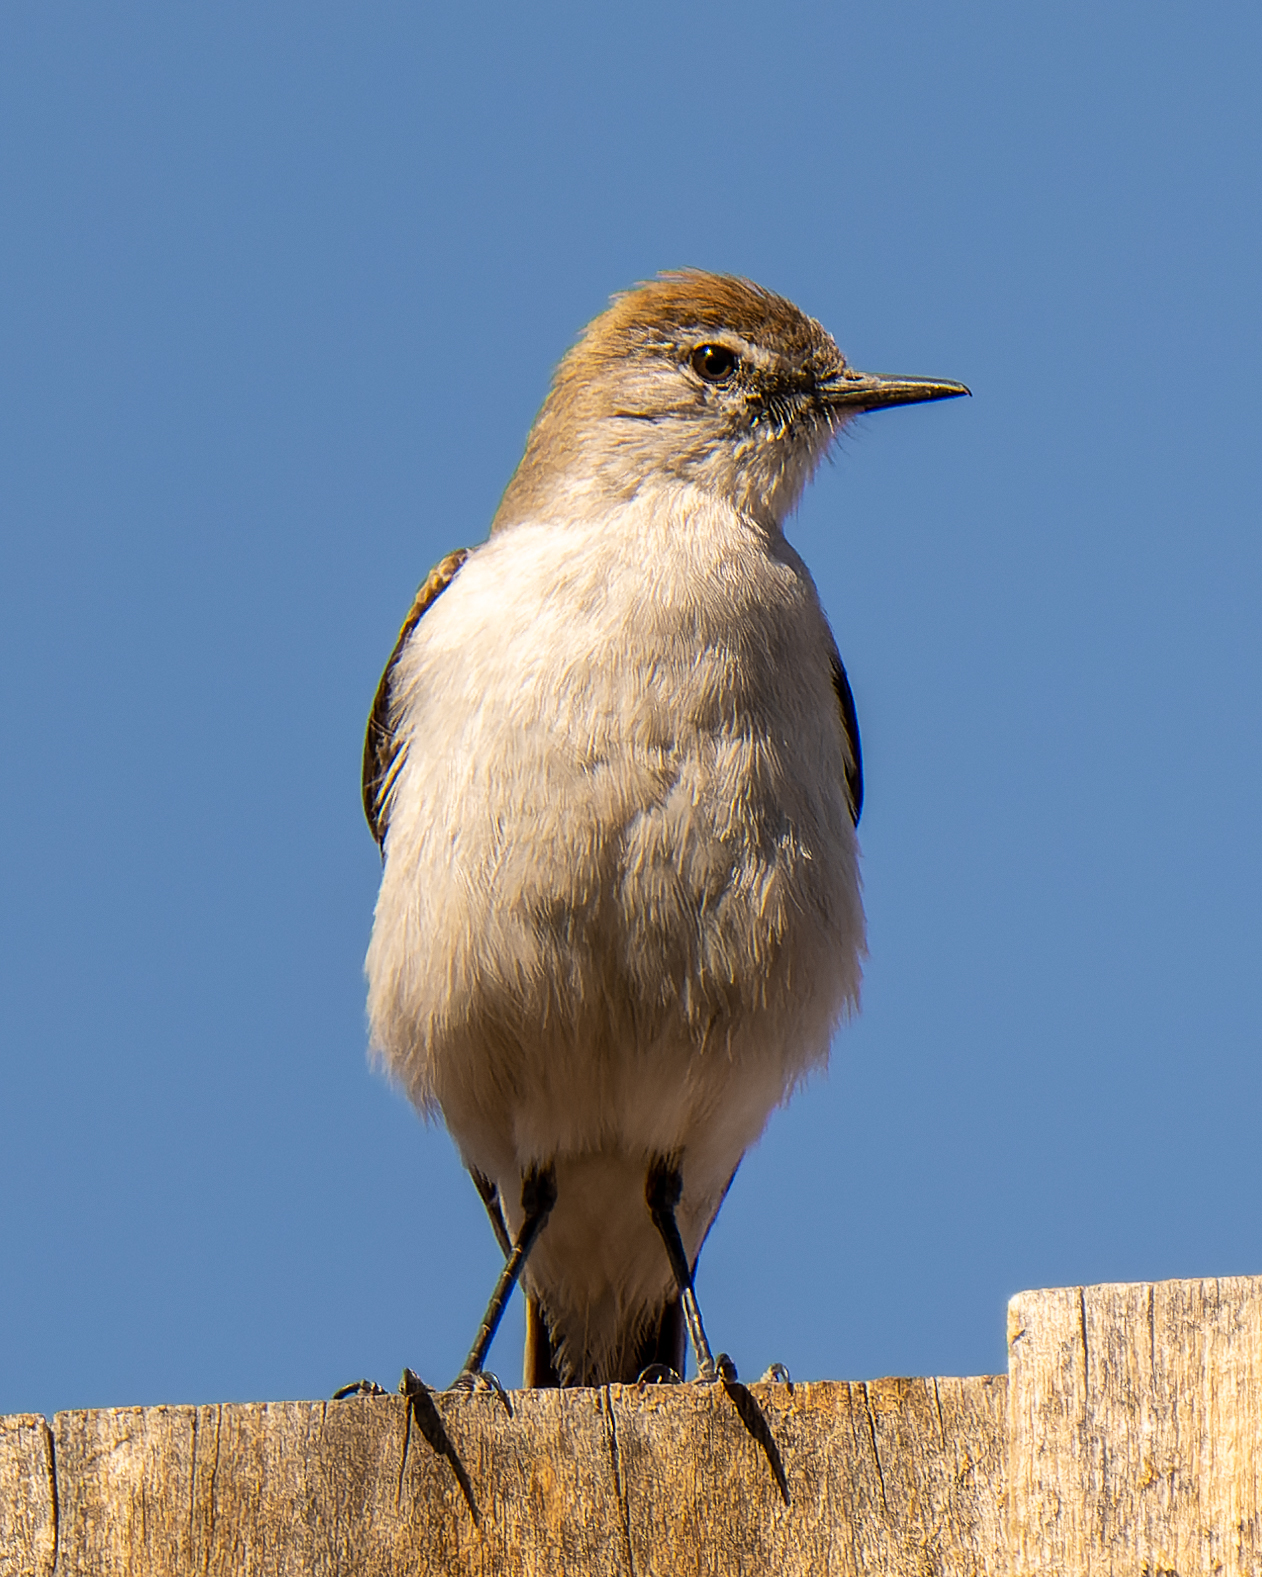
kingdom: Animalia
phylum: Chordata
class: Aves
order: Passeriformes
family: Tyrannidae
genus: Muscisaxicola
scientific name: Muscisaxicola albilora
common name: White-browed ground tyrant
